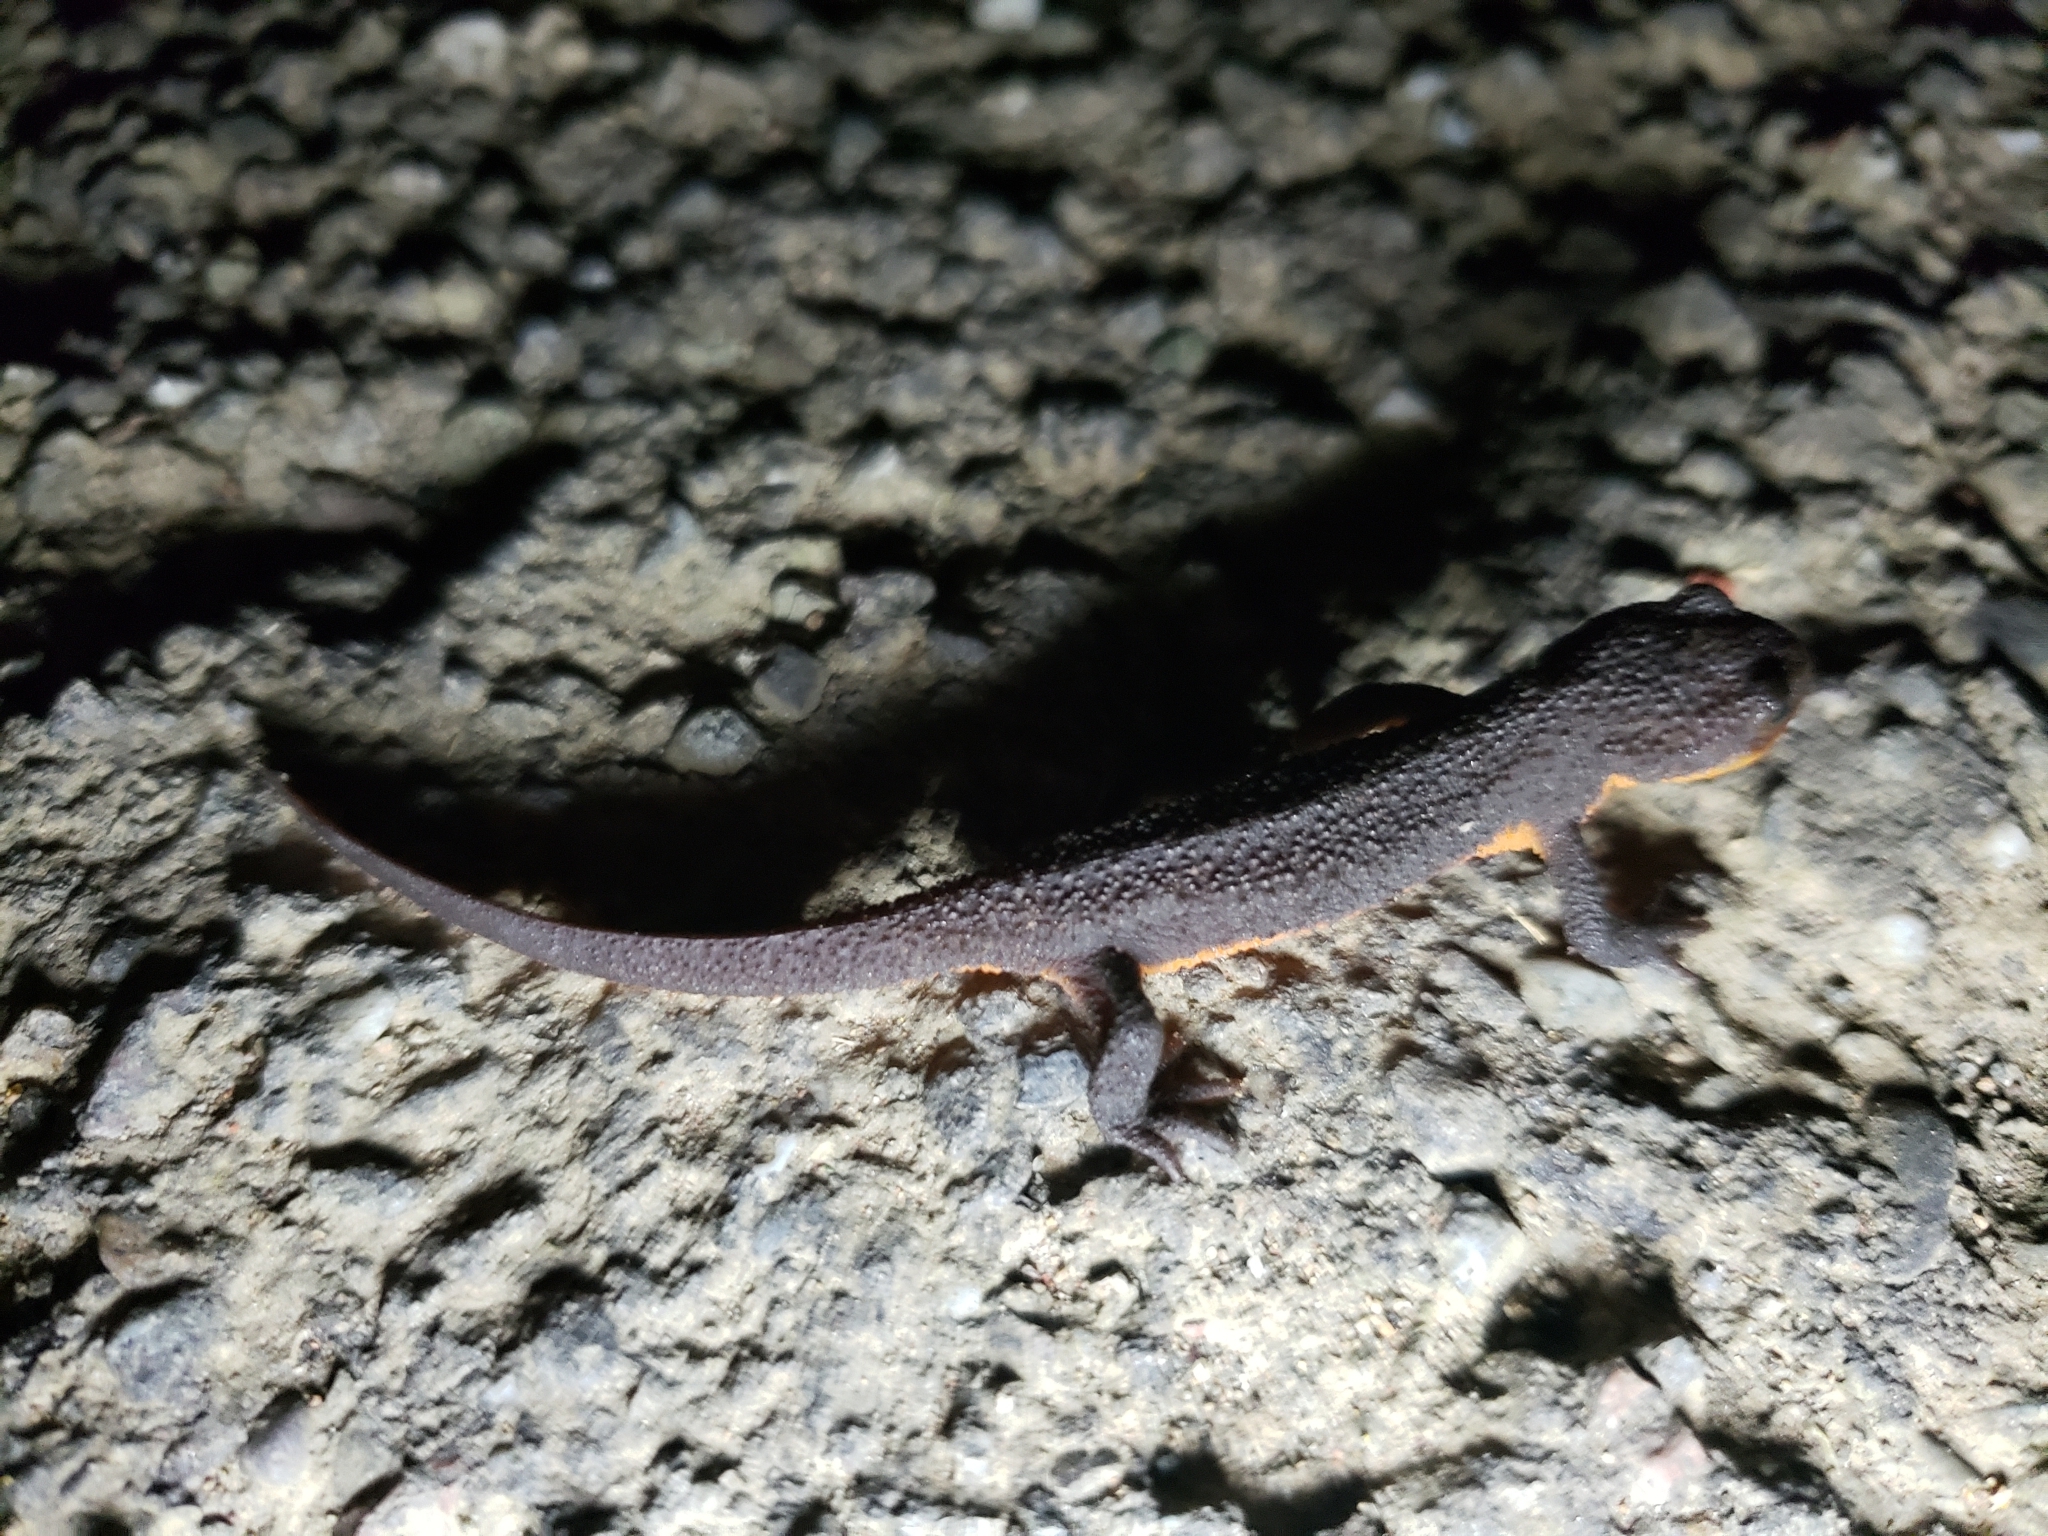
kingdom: Animalia
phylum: Chordata
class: Amphibia
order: Caudata
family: Salamandridae
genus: Taricha
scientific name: Taricha granulosa
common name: Roughskin newt
